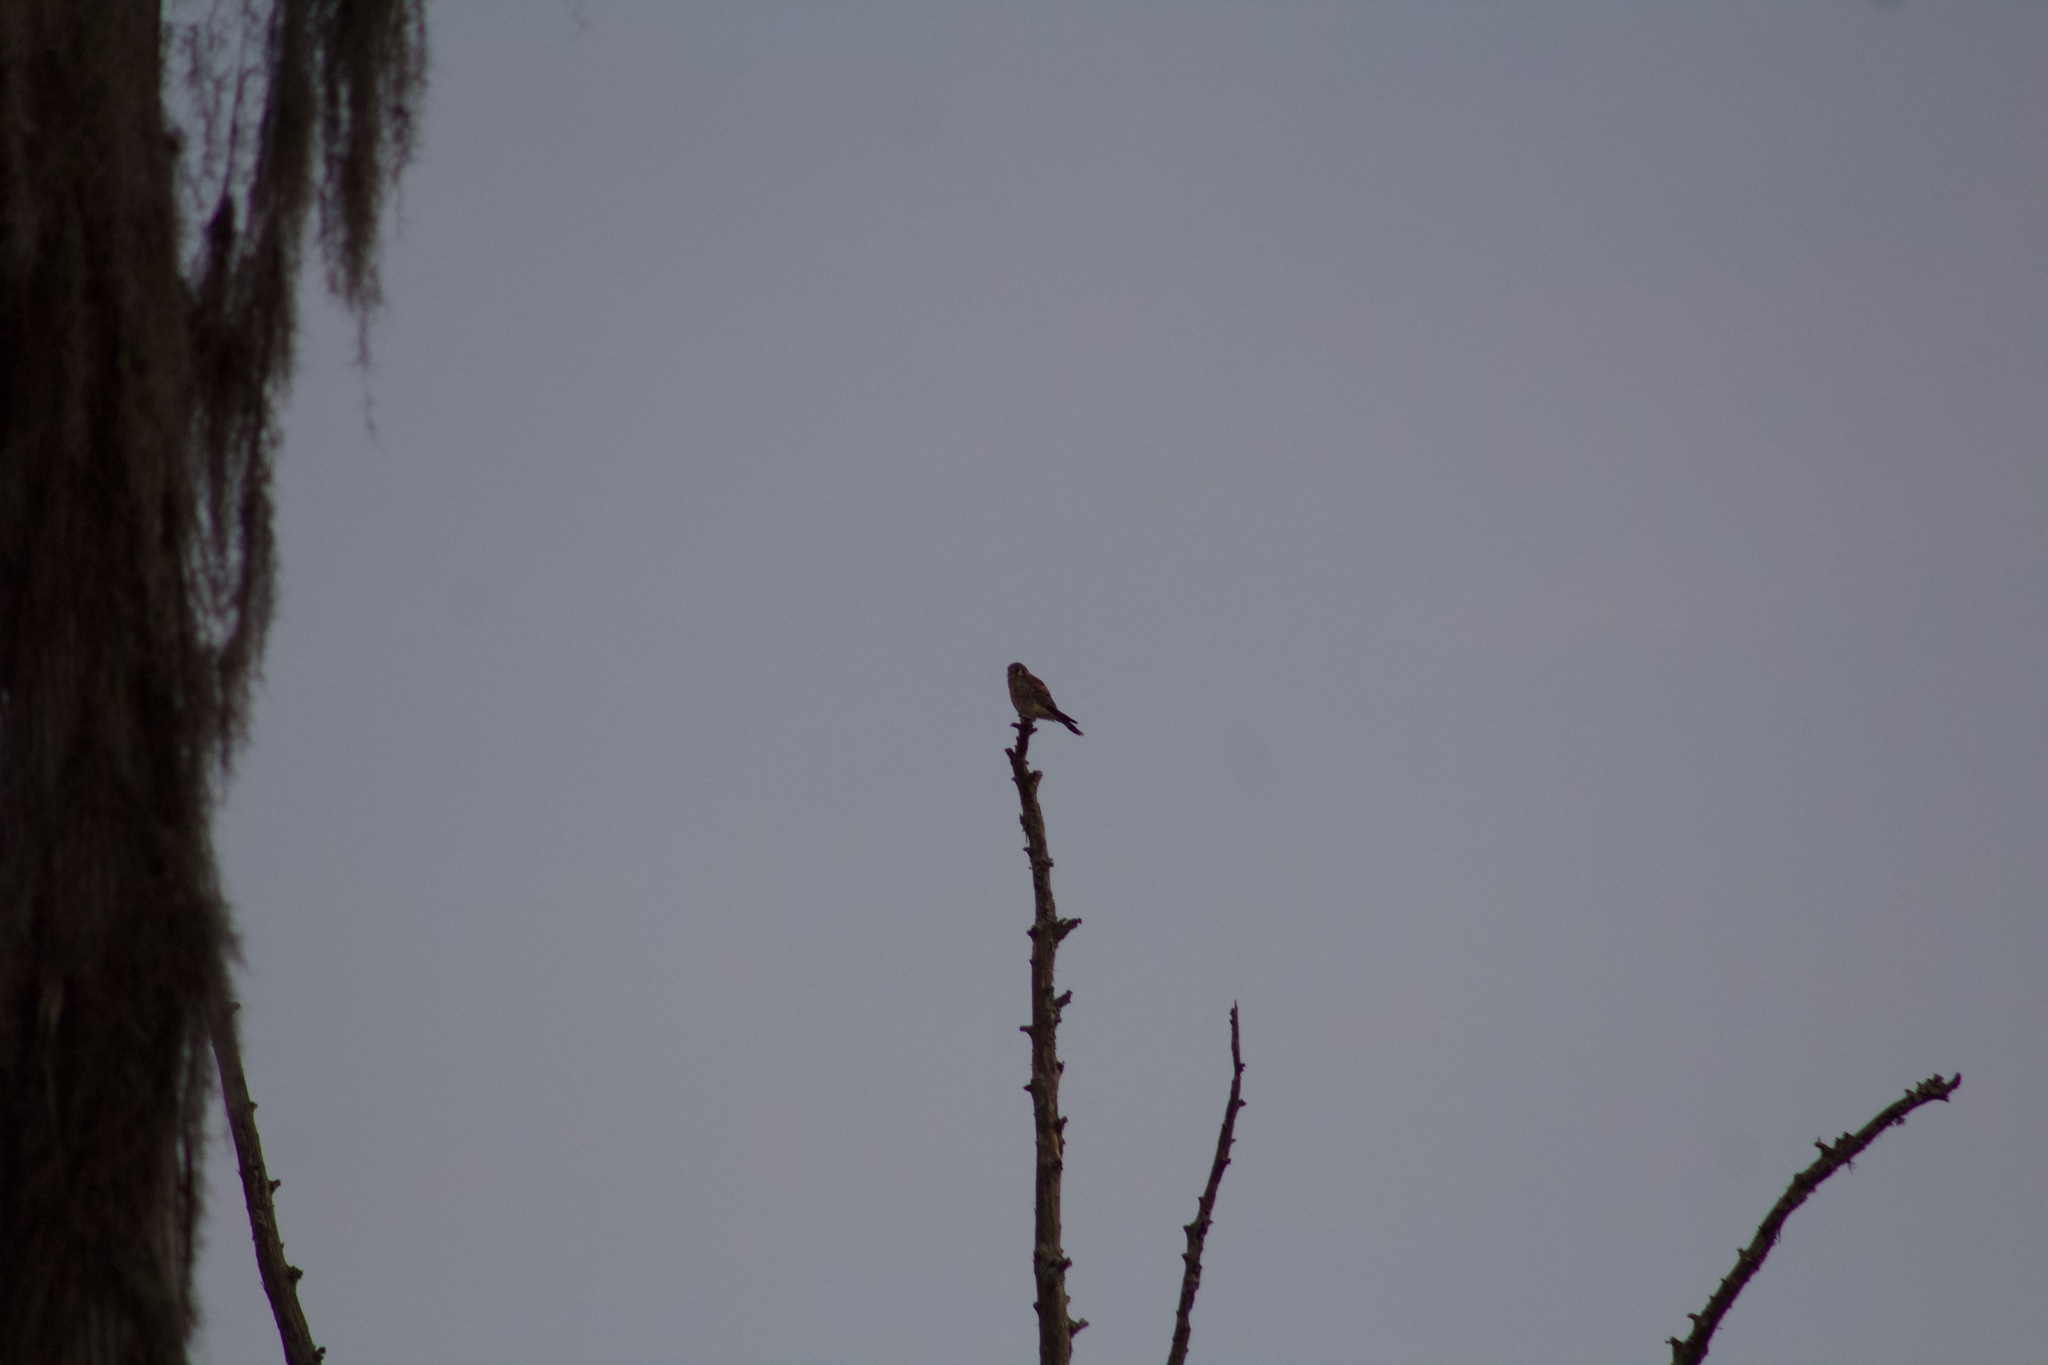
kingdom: Animalia
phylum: Chordata
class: Aves
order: Falconiformes
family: Falconidae
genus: Falco
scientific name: Falco sparverius
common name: American kestrel
